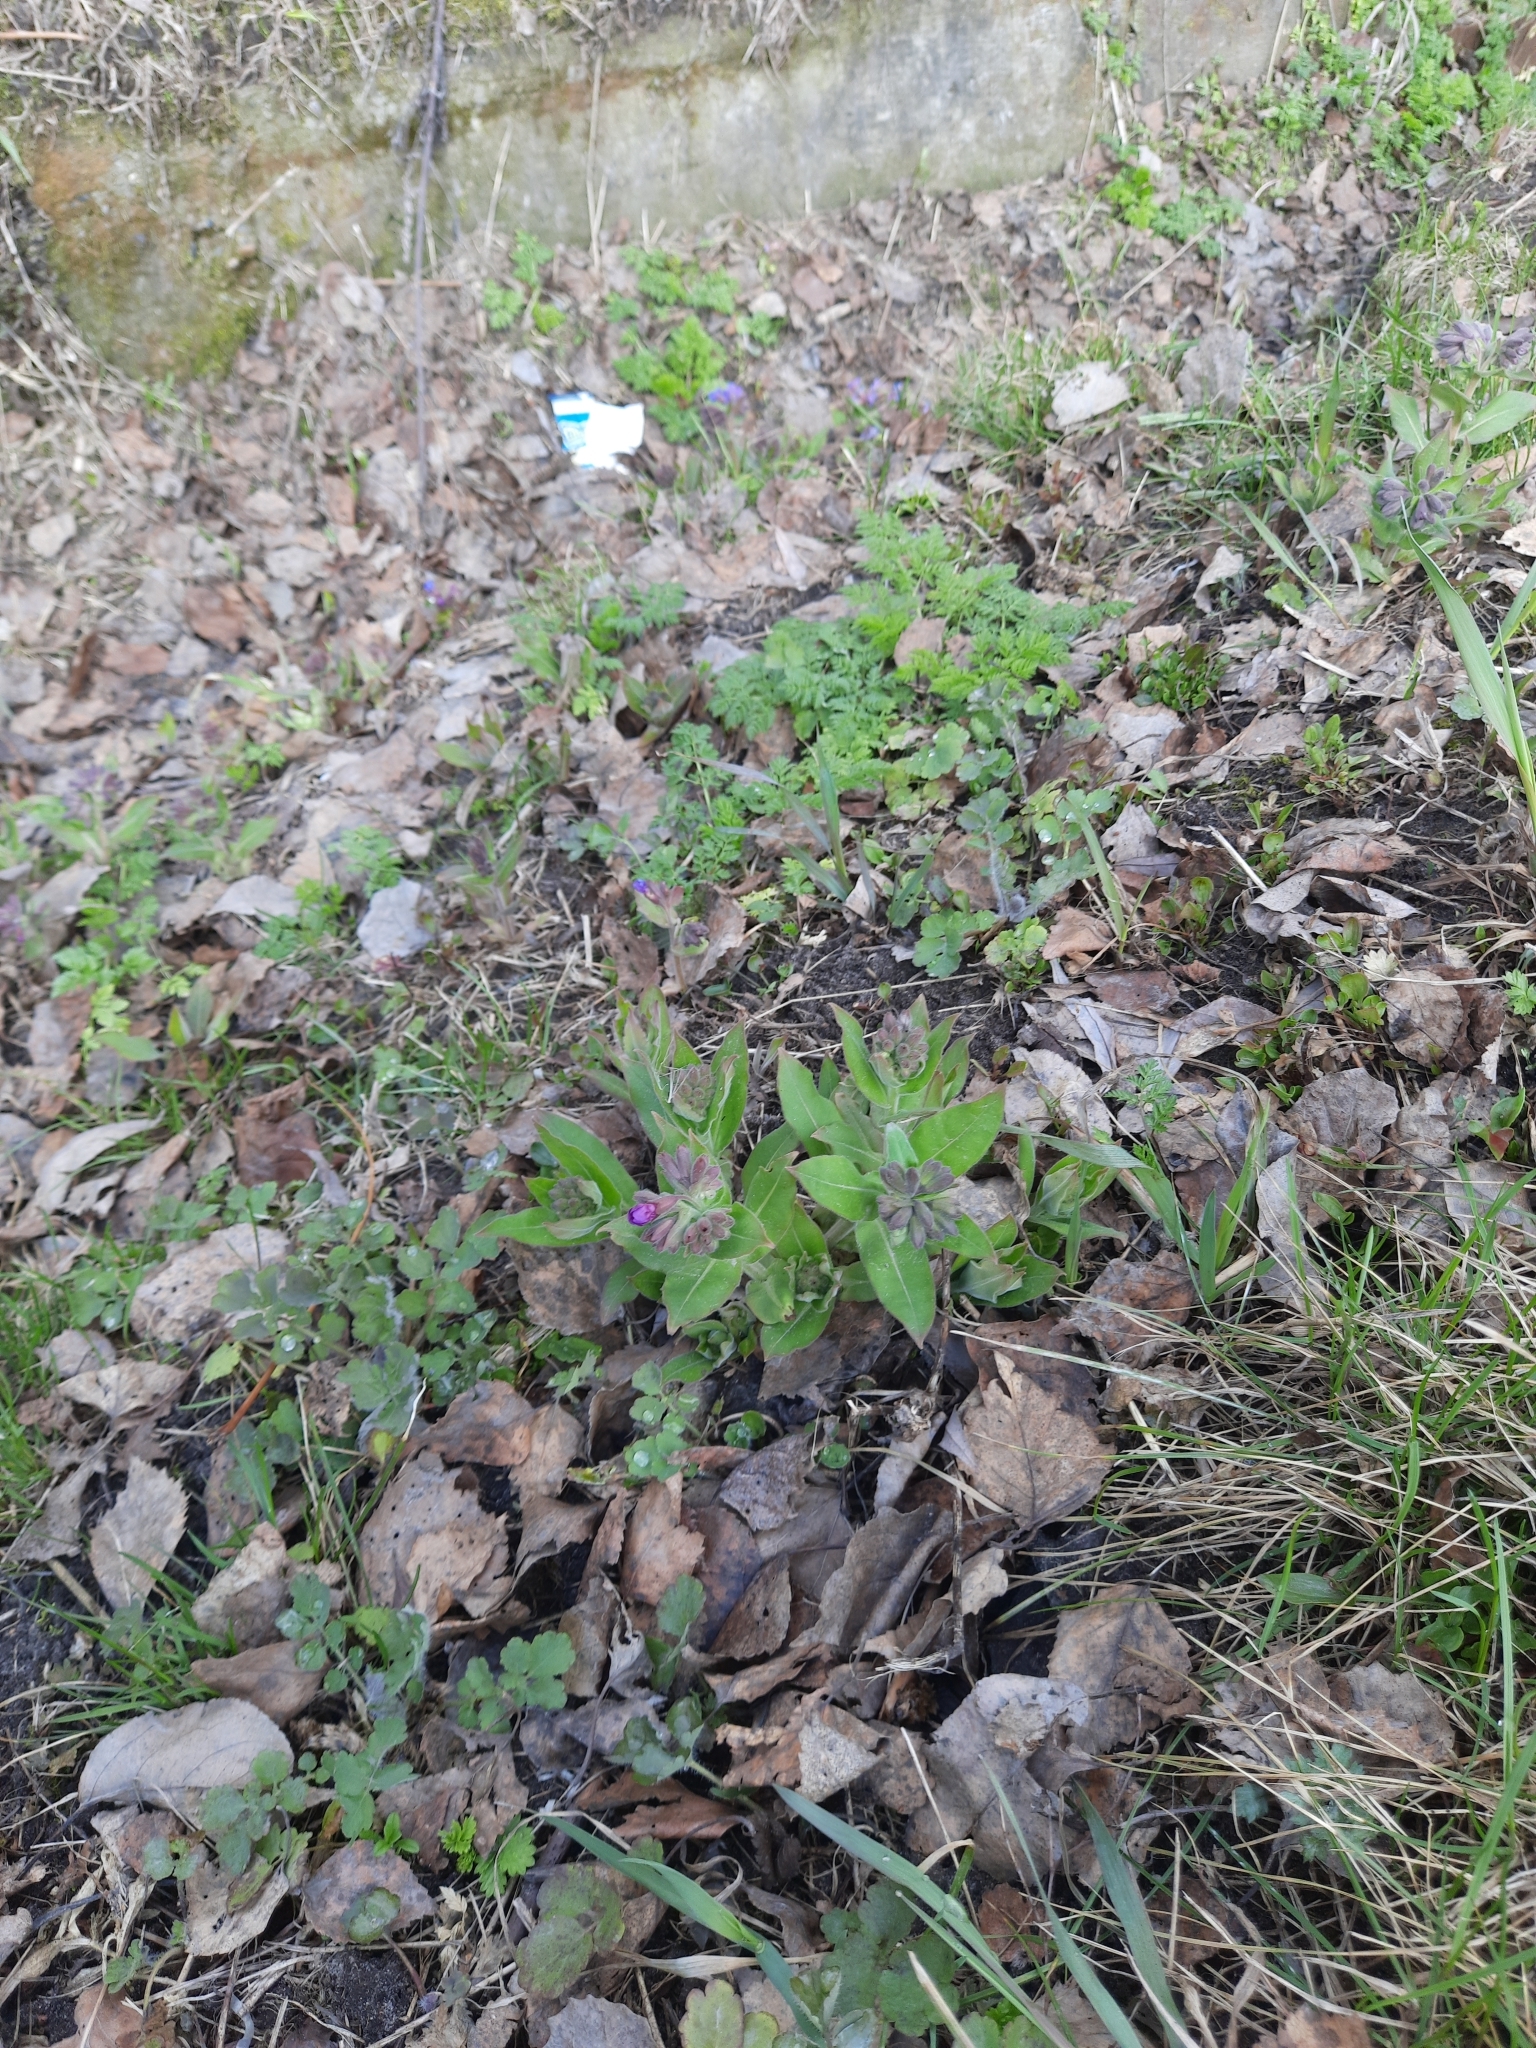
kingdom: Plantae
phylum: Tracheophyta
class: Magnoliopsida
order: Boraginales
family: Boraginaceae
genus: Pulmonaria
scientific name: Pulmonaria mollis
